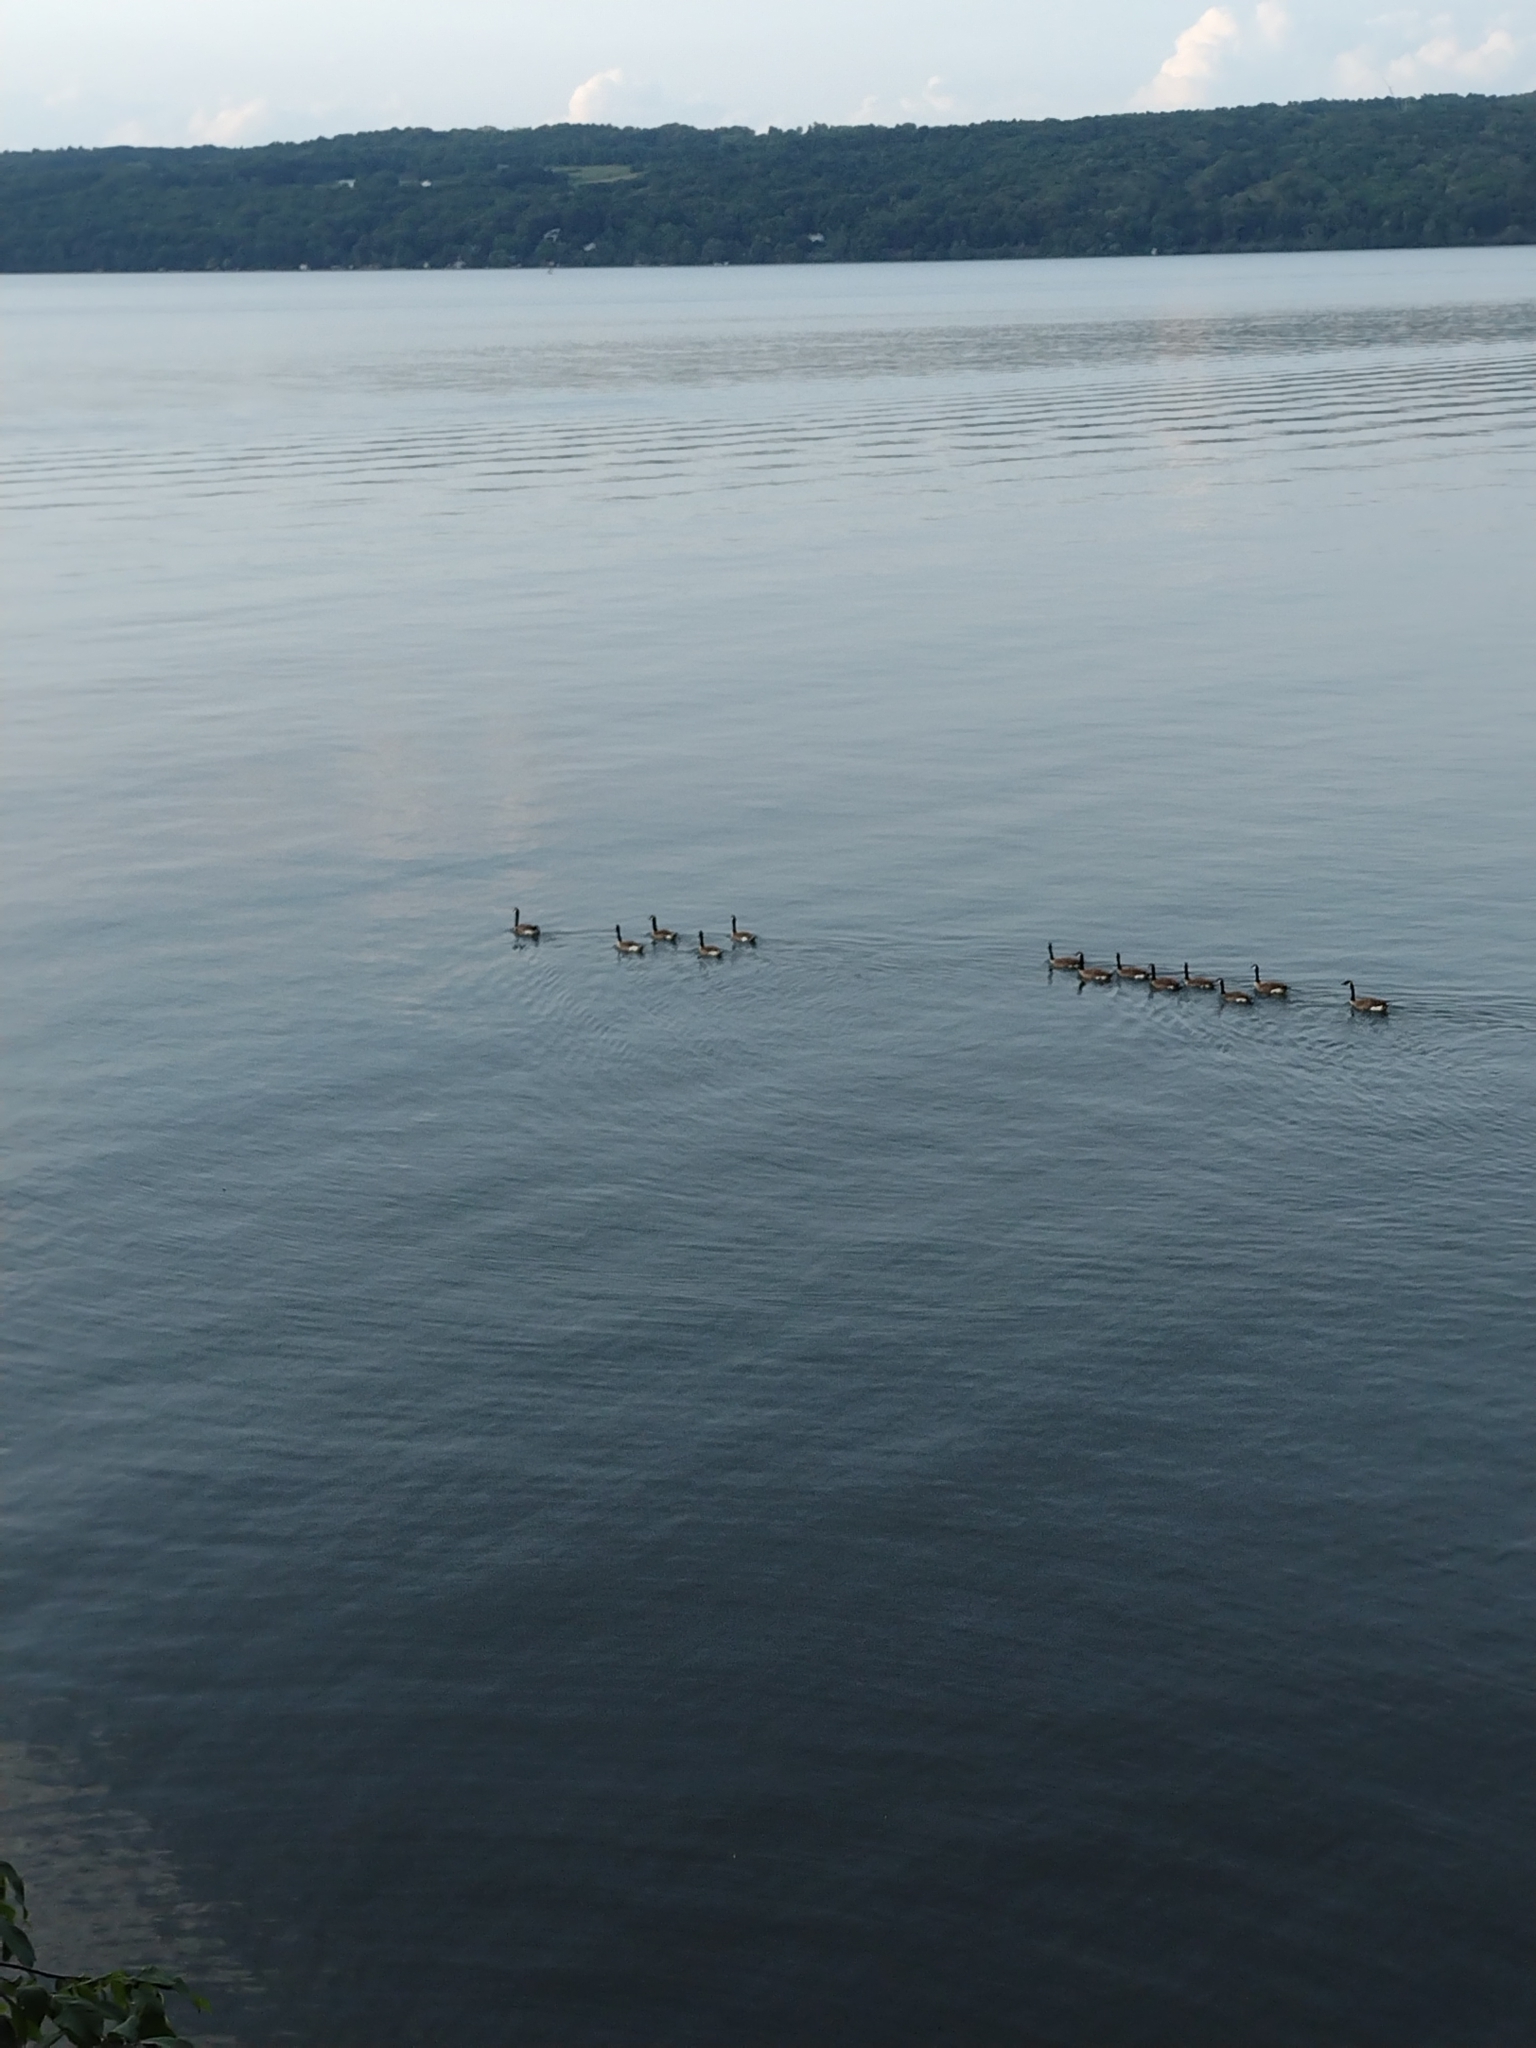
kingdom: Animalia
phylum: Chordata
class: Aves
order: Anseriformes
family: Anatidae
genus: Branta
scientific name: Branta canadensis
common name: Canada goose
